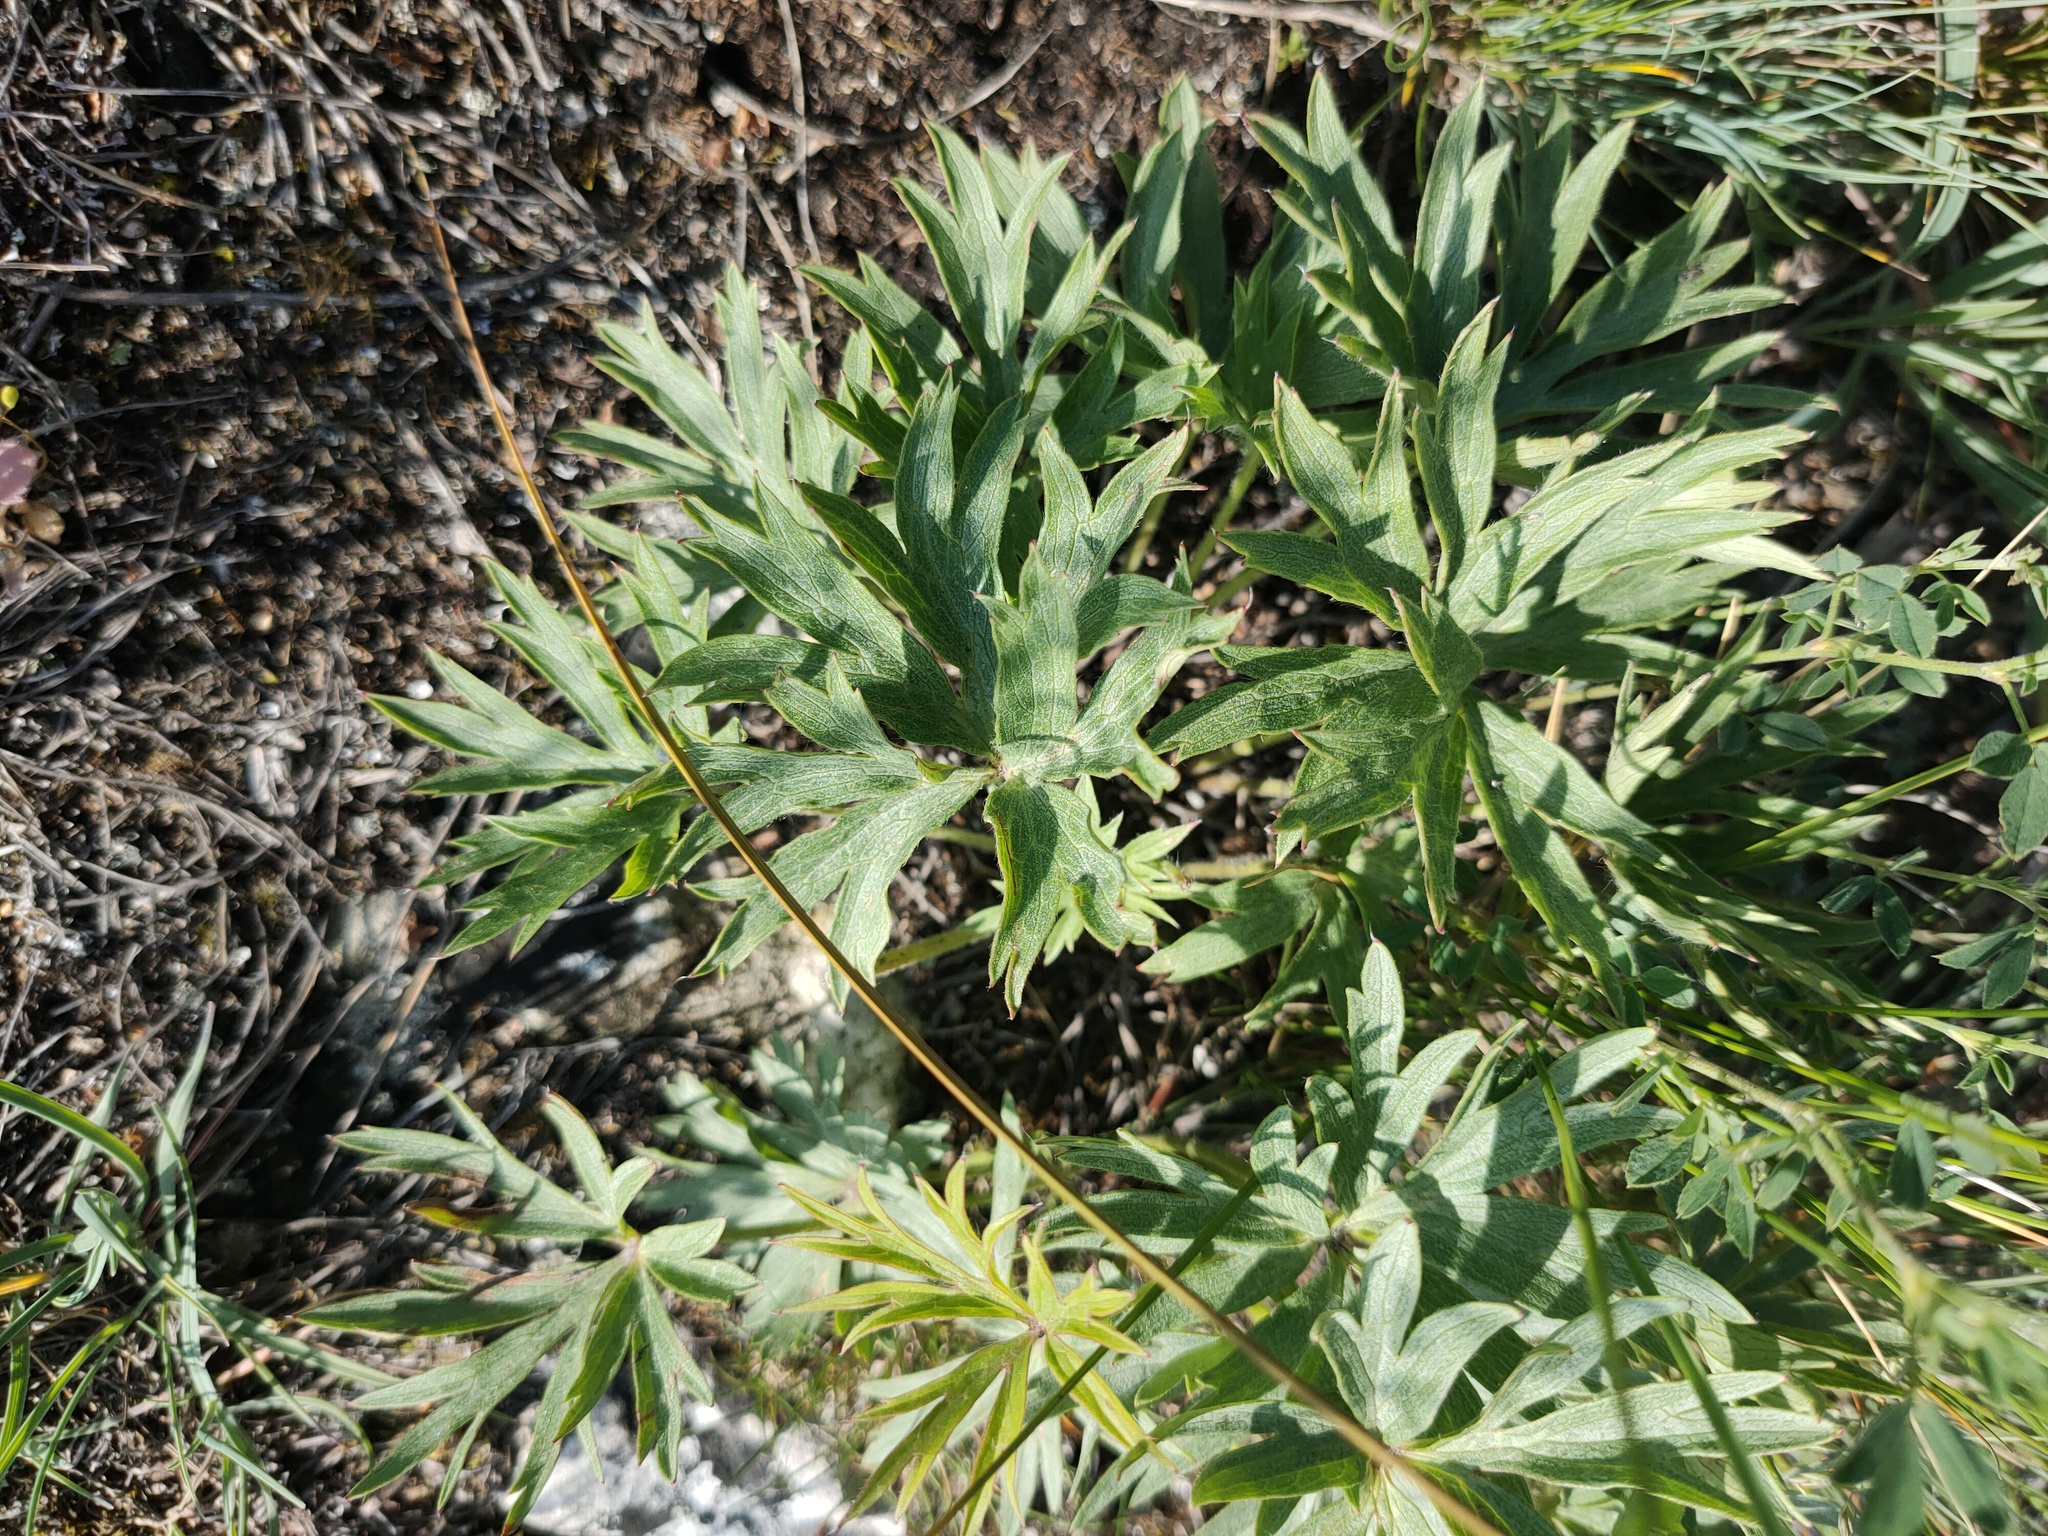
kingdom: Plantae
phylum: Tracheophyta
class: Magnoliopsida
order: Ranunculales
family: Ranunculaceae
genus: Pulsatilla
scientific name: Pulsatilla patens
